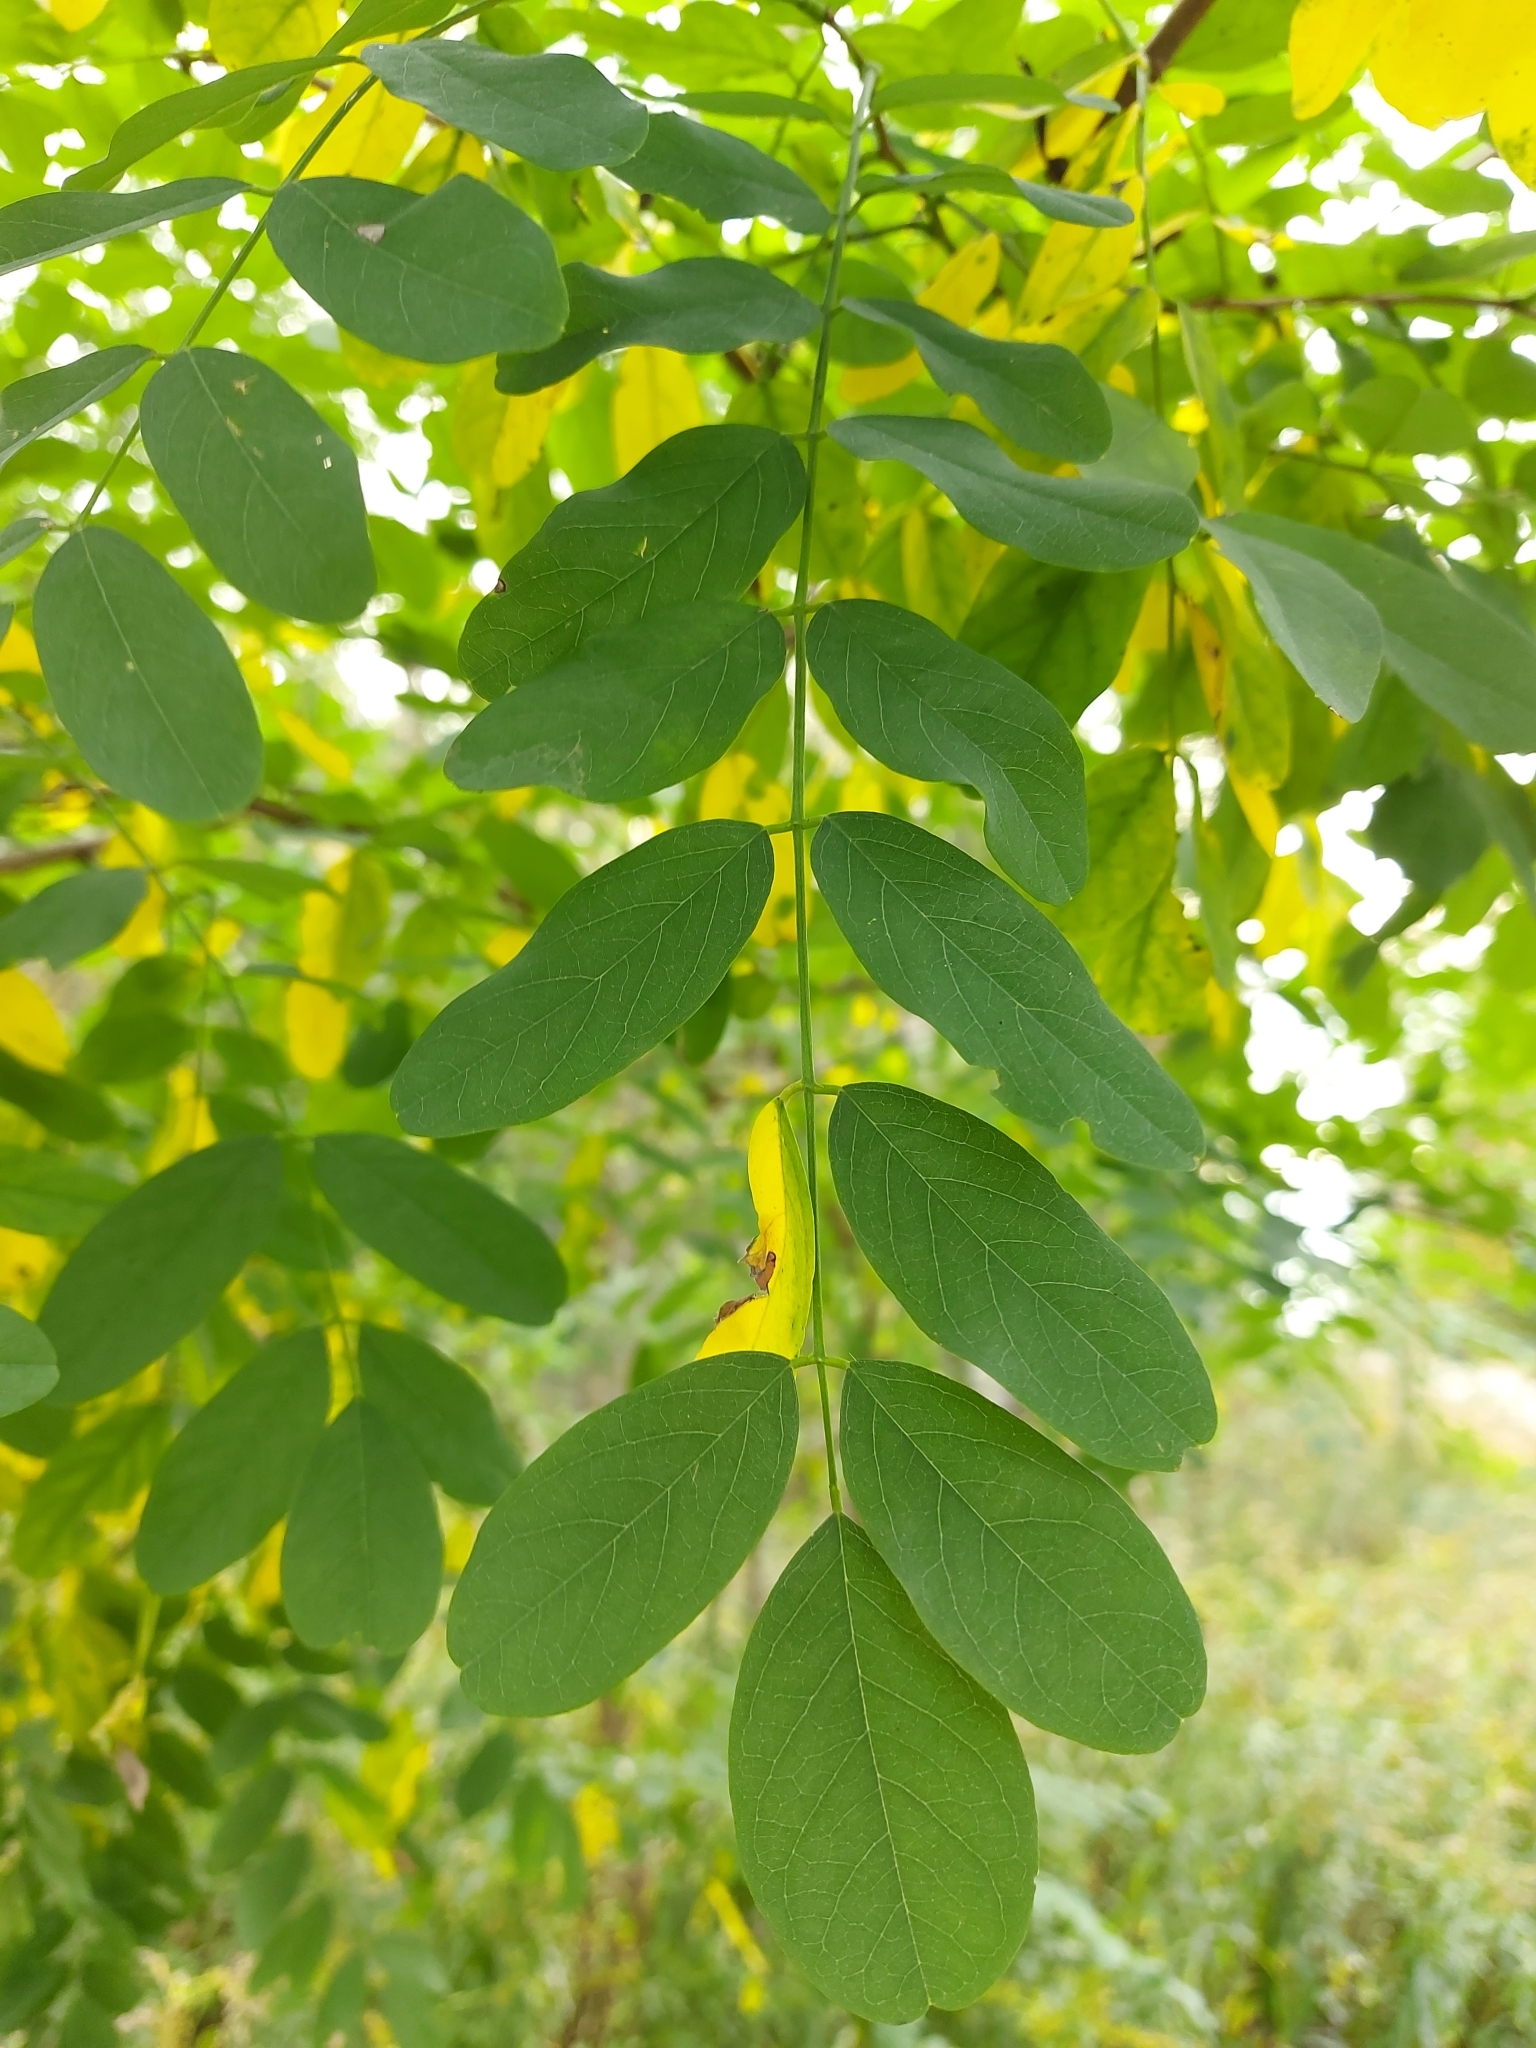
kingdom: Plantae
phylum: Tracheophyta
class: Magnoliopsida
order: Fabales
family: Fabaceae
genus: Robinia
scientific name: Robinia pseudoacacia
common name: Black locust
